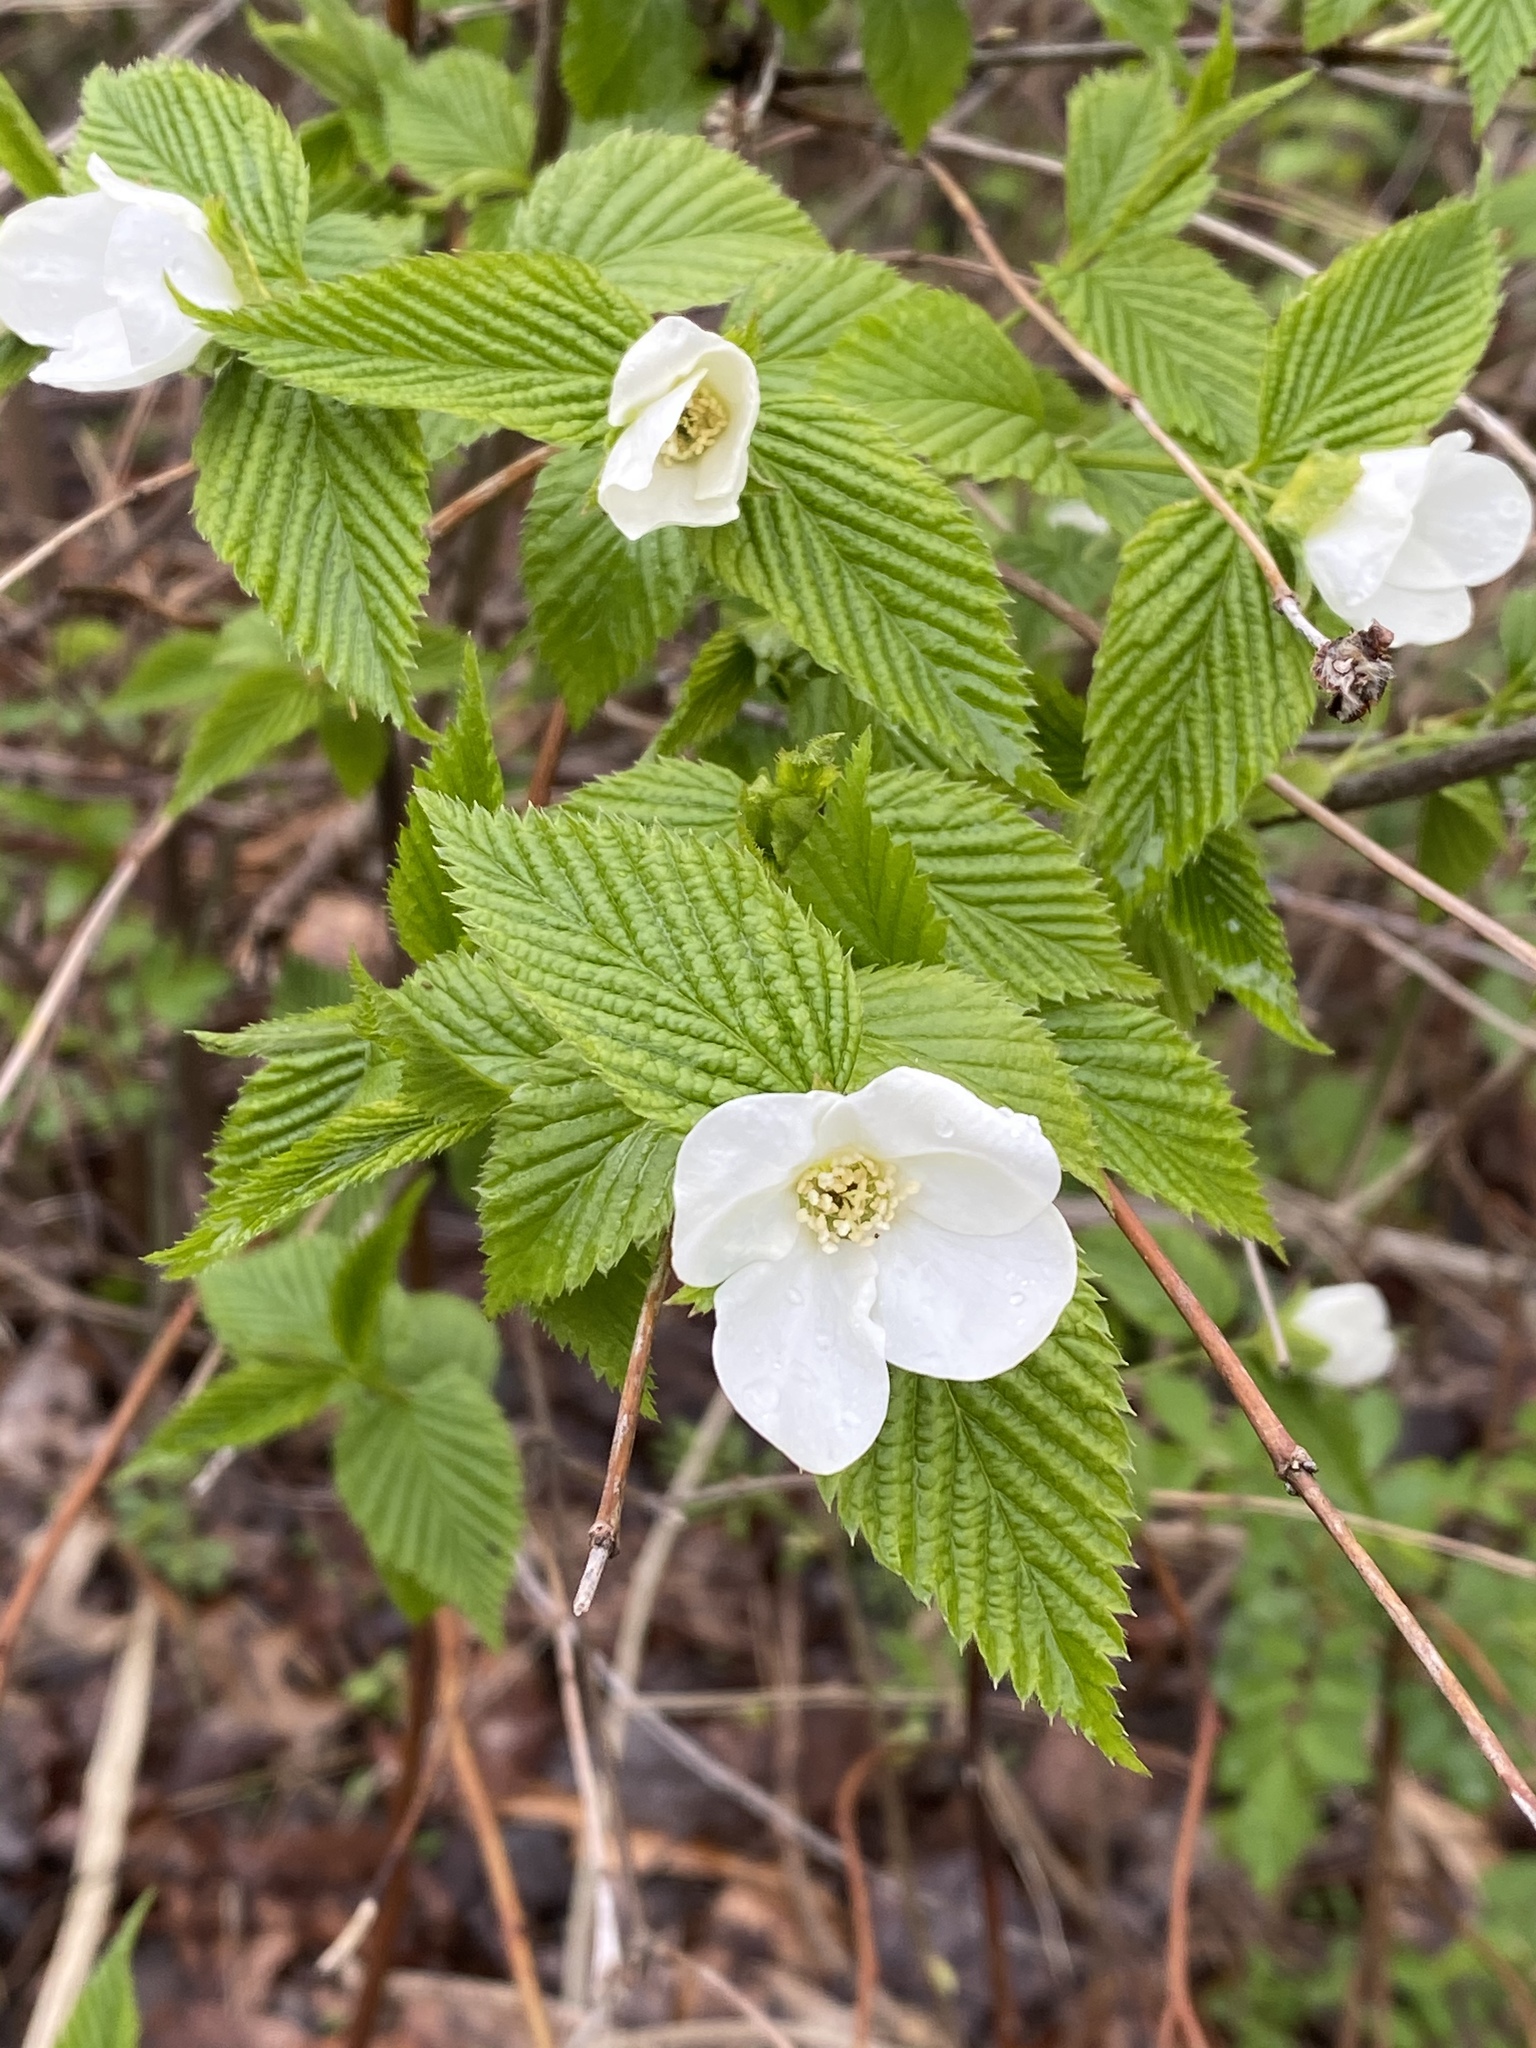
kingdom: Plantae
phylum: Tracheophyta
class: Magnoliopsida
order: Rosales
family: Rosaceae
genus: Rhodotypos
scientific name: Rhodotypos scandens
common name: Jetbead
